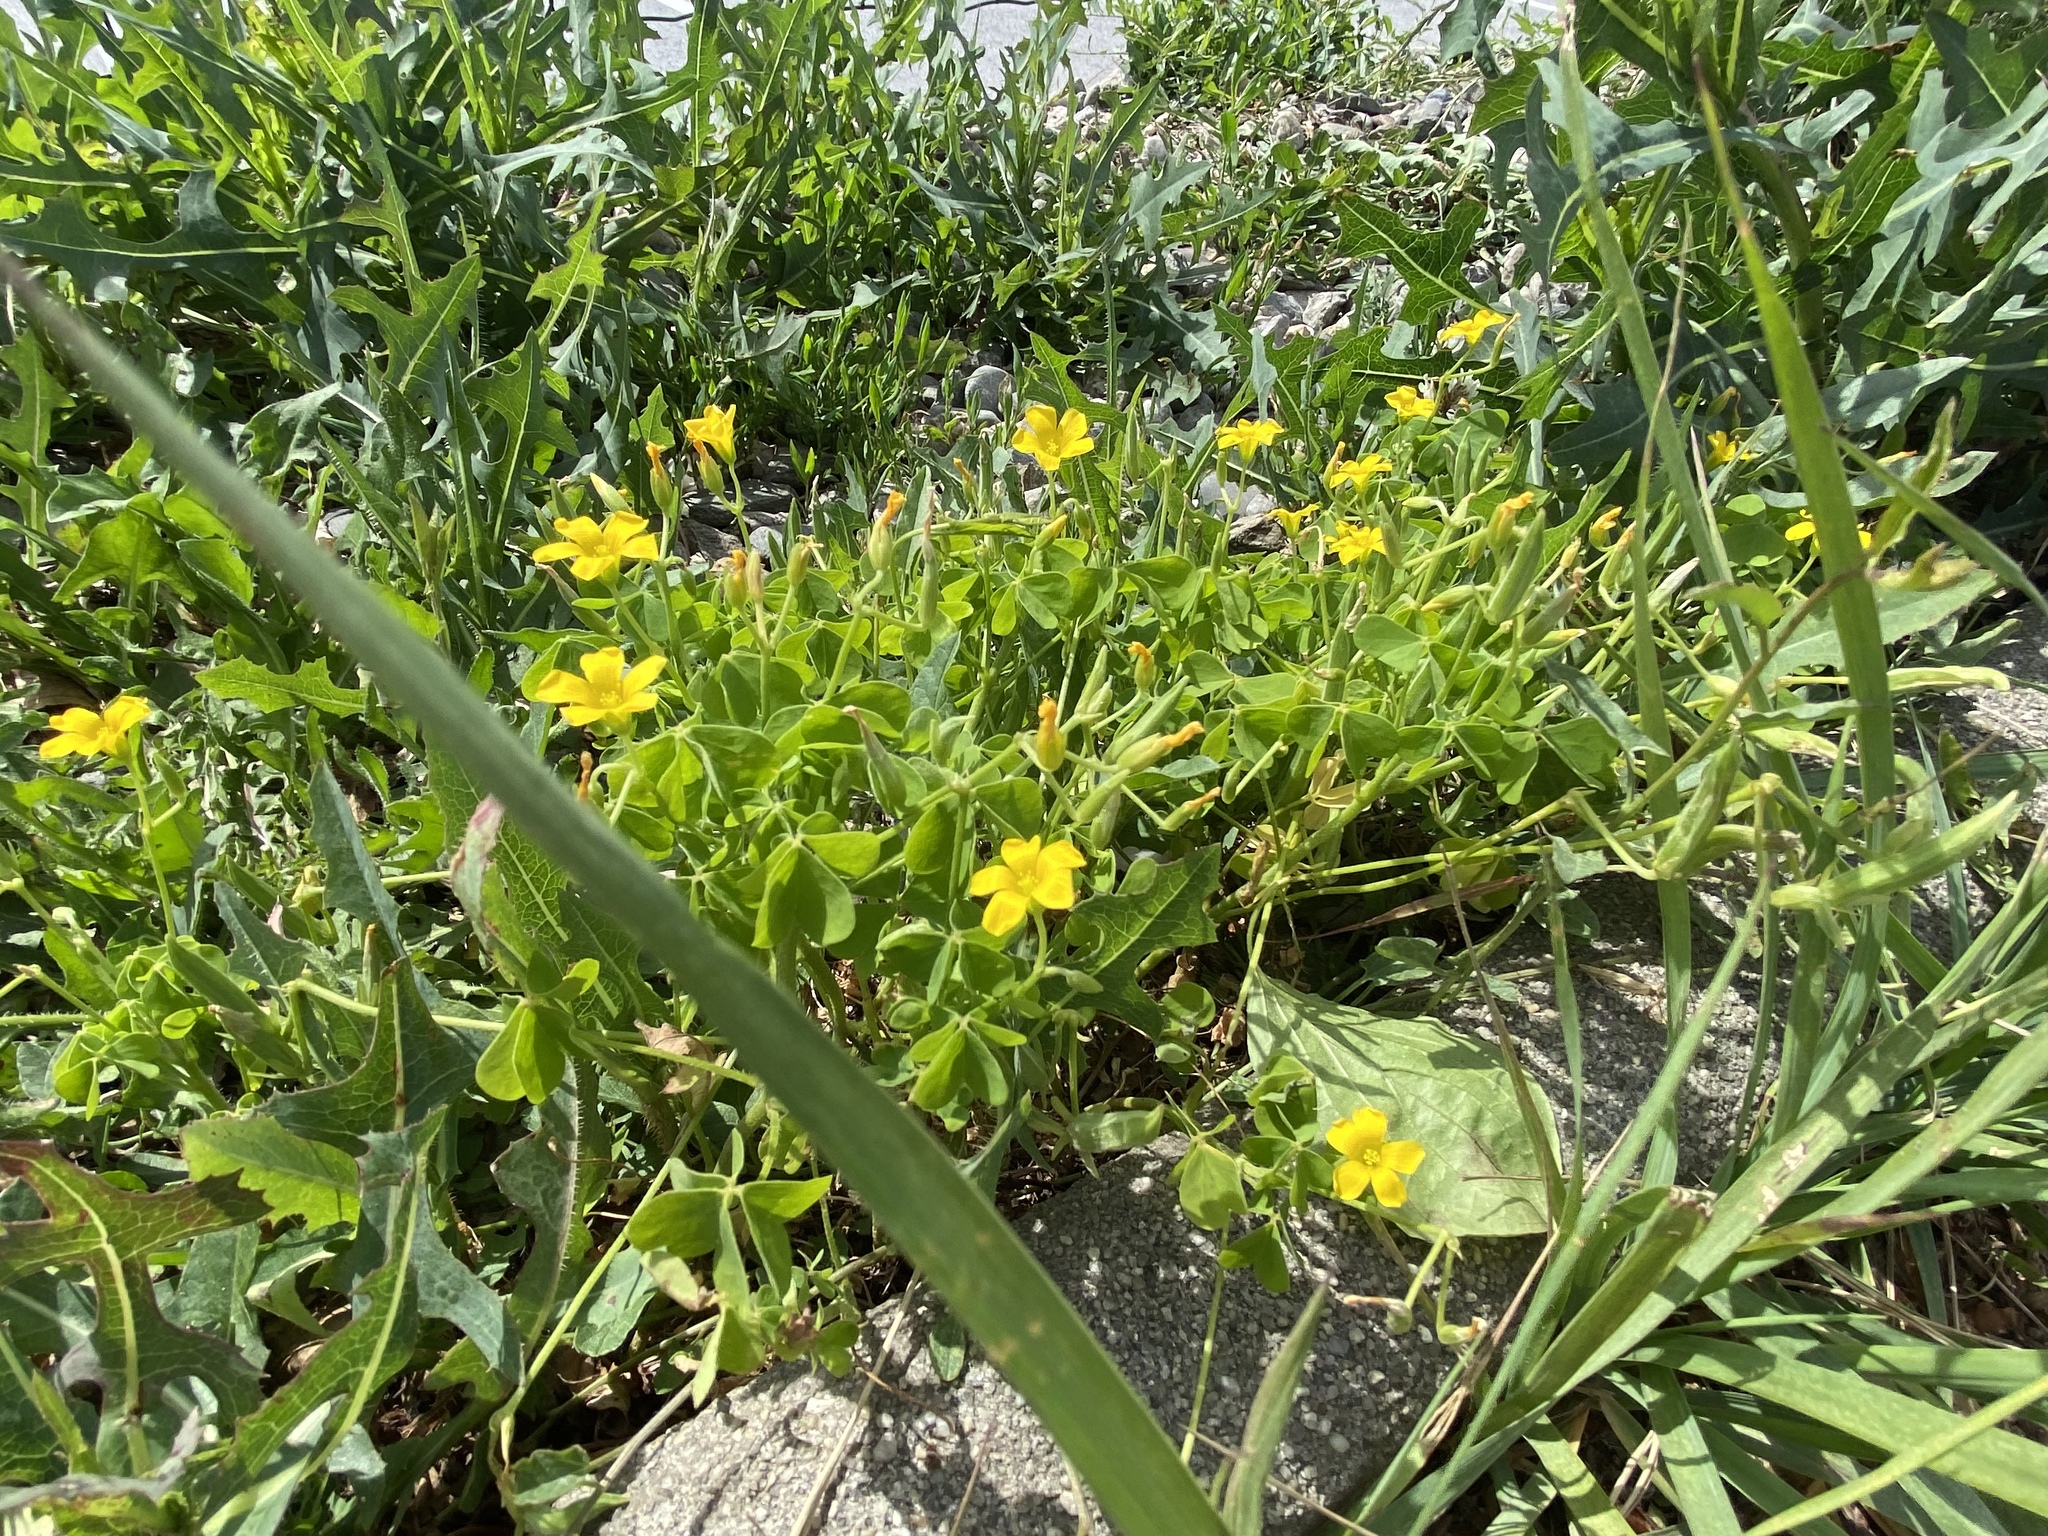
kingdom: Plantae
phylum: Tracheophyta
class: Magnoliopsida
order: Oxalidales
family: Oxalidaceae
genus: Oxalis
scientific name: Oxalis dillenii
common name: Sussex yellow-sorrel
